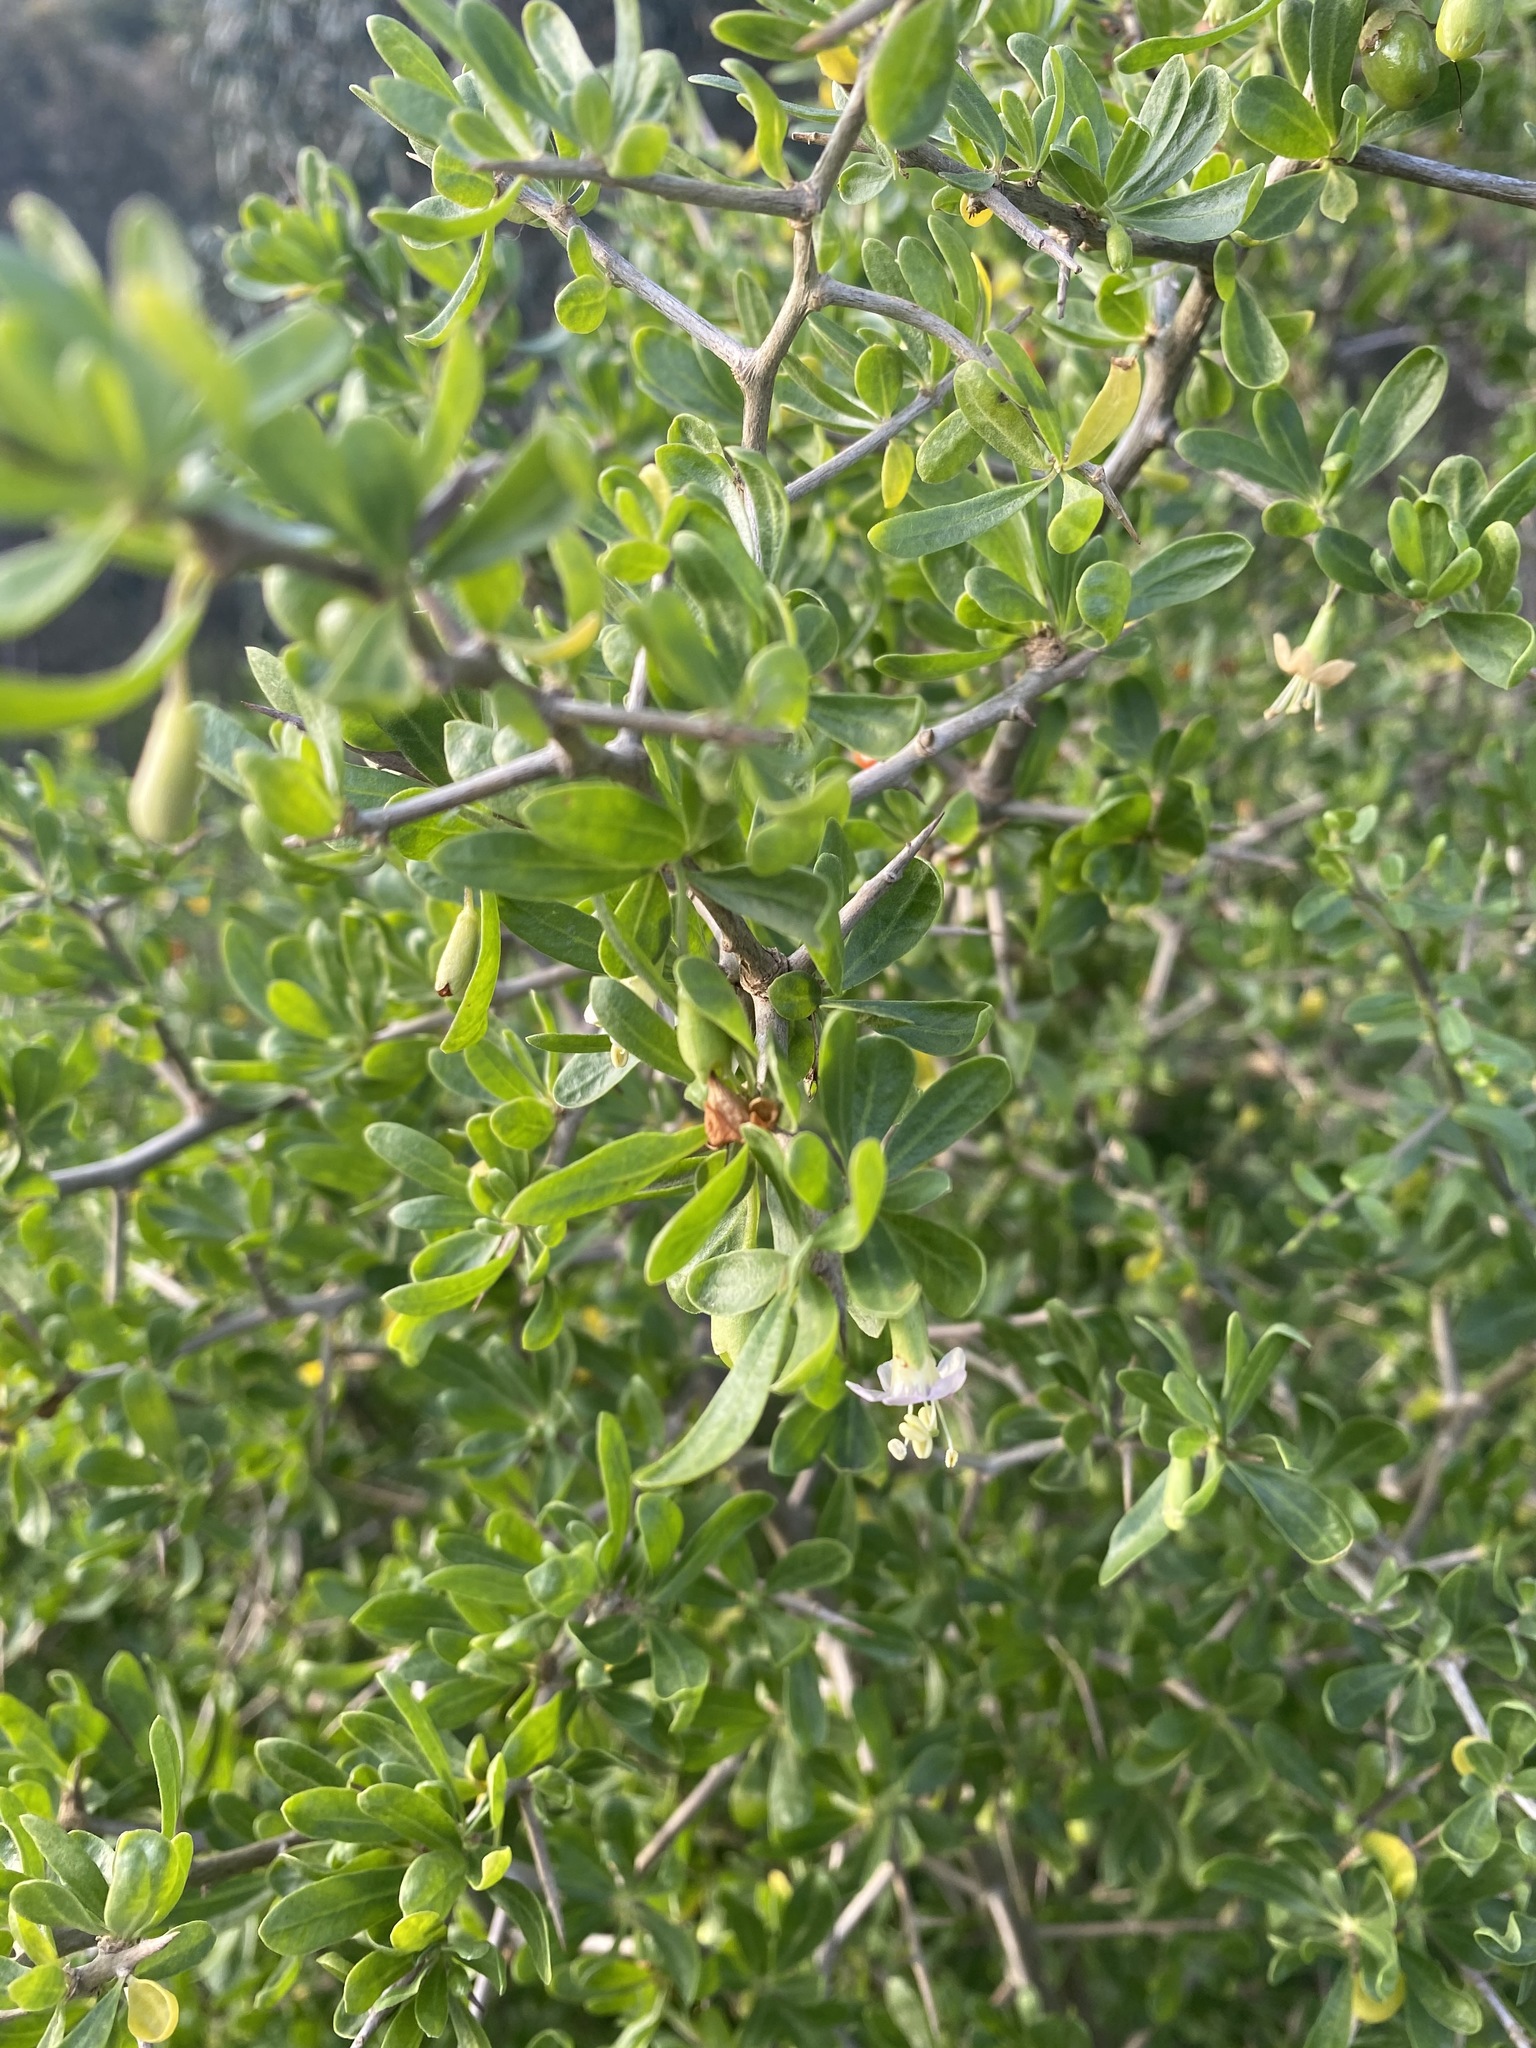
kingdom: Plantae
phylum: Tracheophyta
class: Magnoliopsida
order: Solanales
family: Solanaceae
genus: Lycium
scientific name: Lycium ferocissimum
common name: African boxthorn
